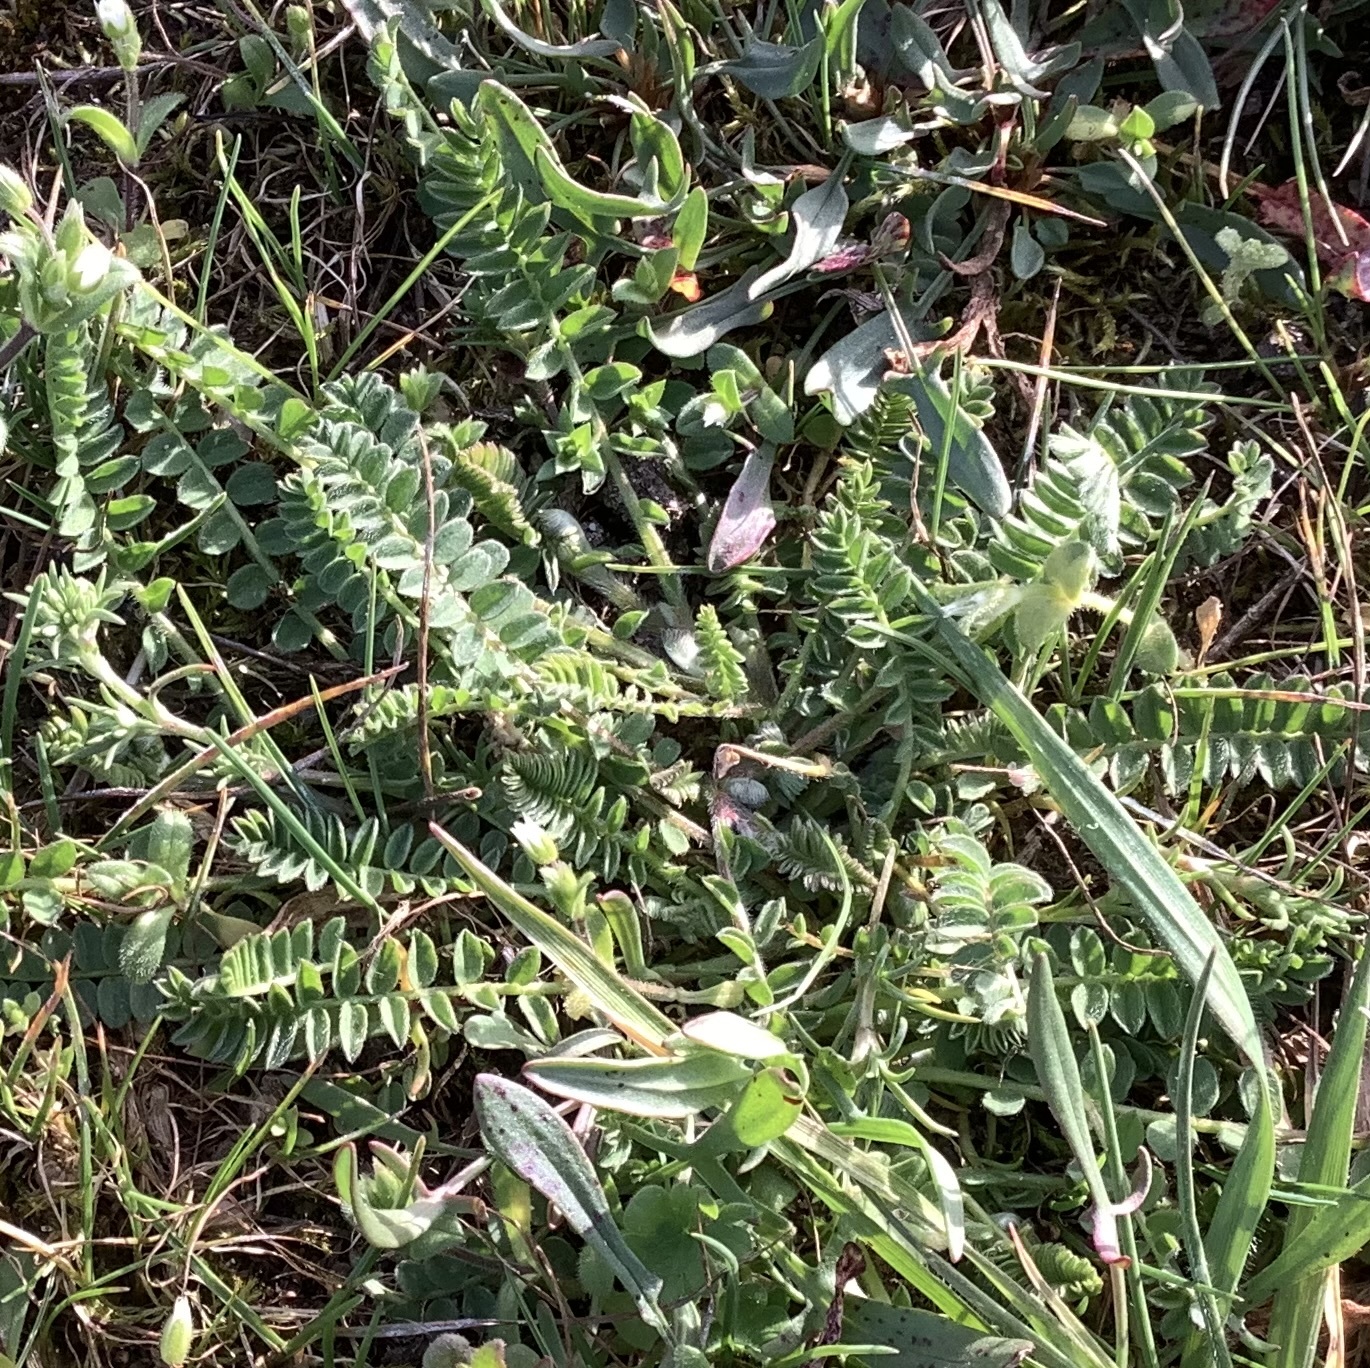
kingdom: Plantae
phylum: Tracheophyta
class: Magnoliopsida
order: Fabales
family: Fabaceae
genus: Ornithopus
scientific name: Ornithopus perpusillus
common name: Bird's-foot
